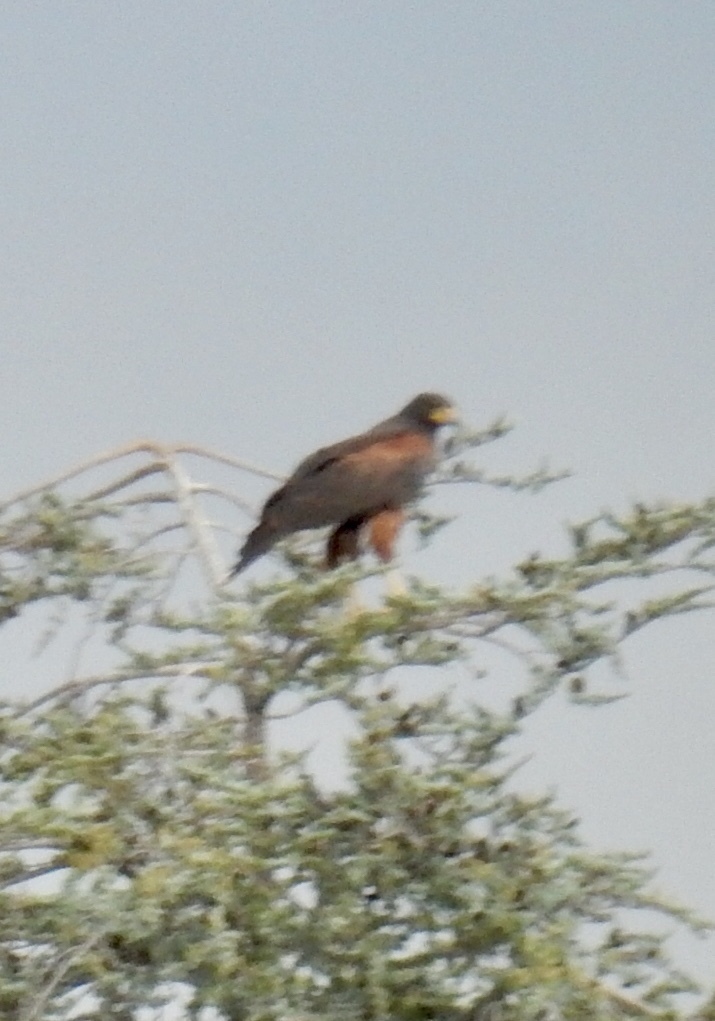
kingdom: Animalia
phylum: Chordata
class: Aves
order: Accipitriformes
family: Accipitridae
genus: Parabuteo
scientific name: Parabuteo unicinctus
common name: Harris's hawk
